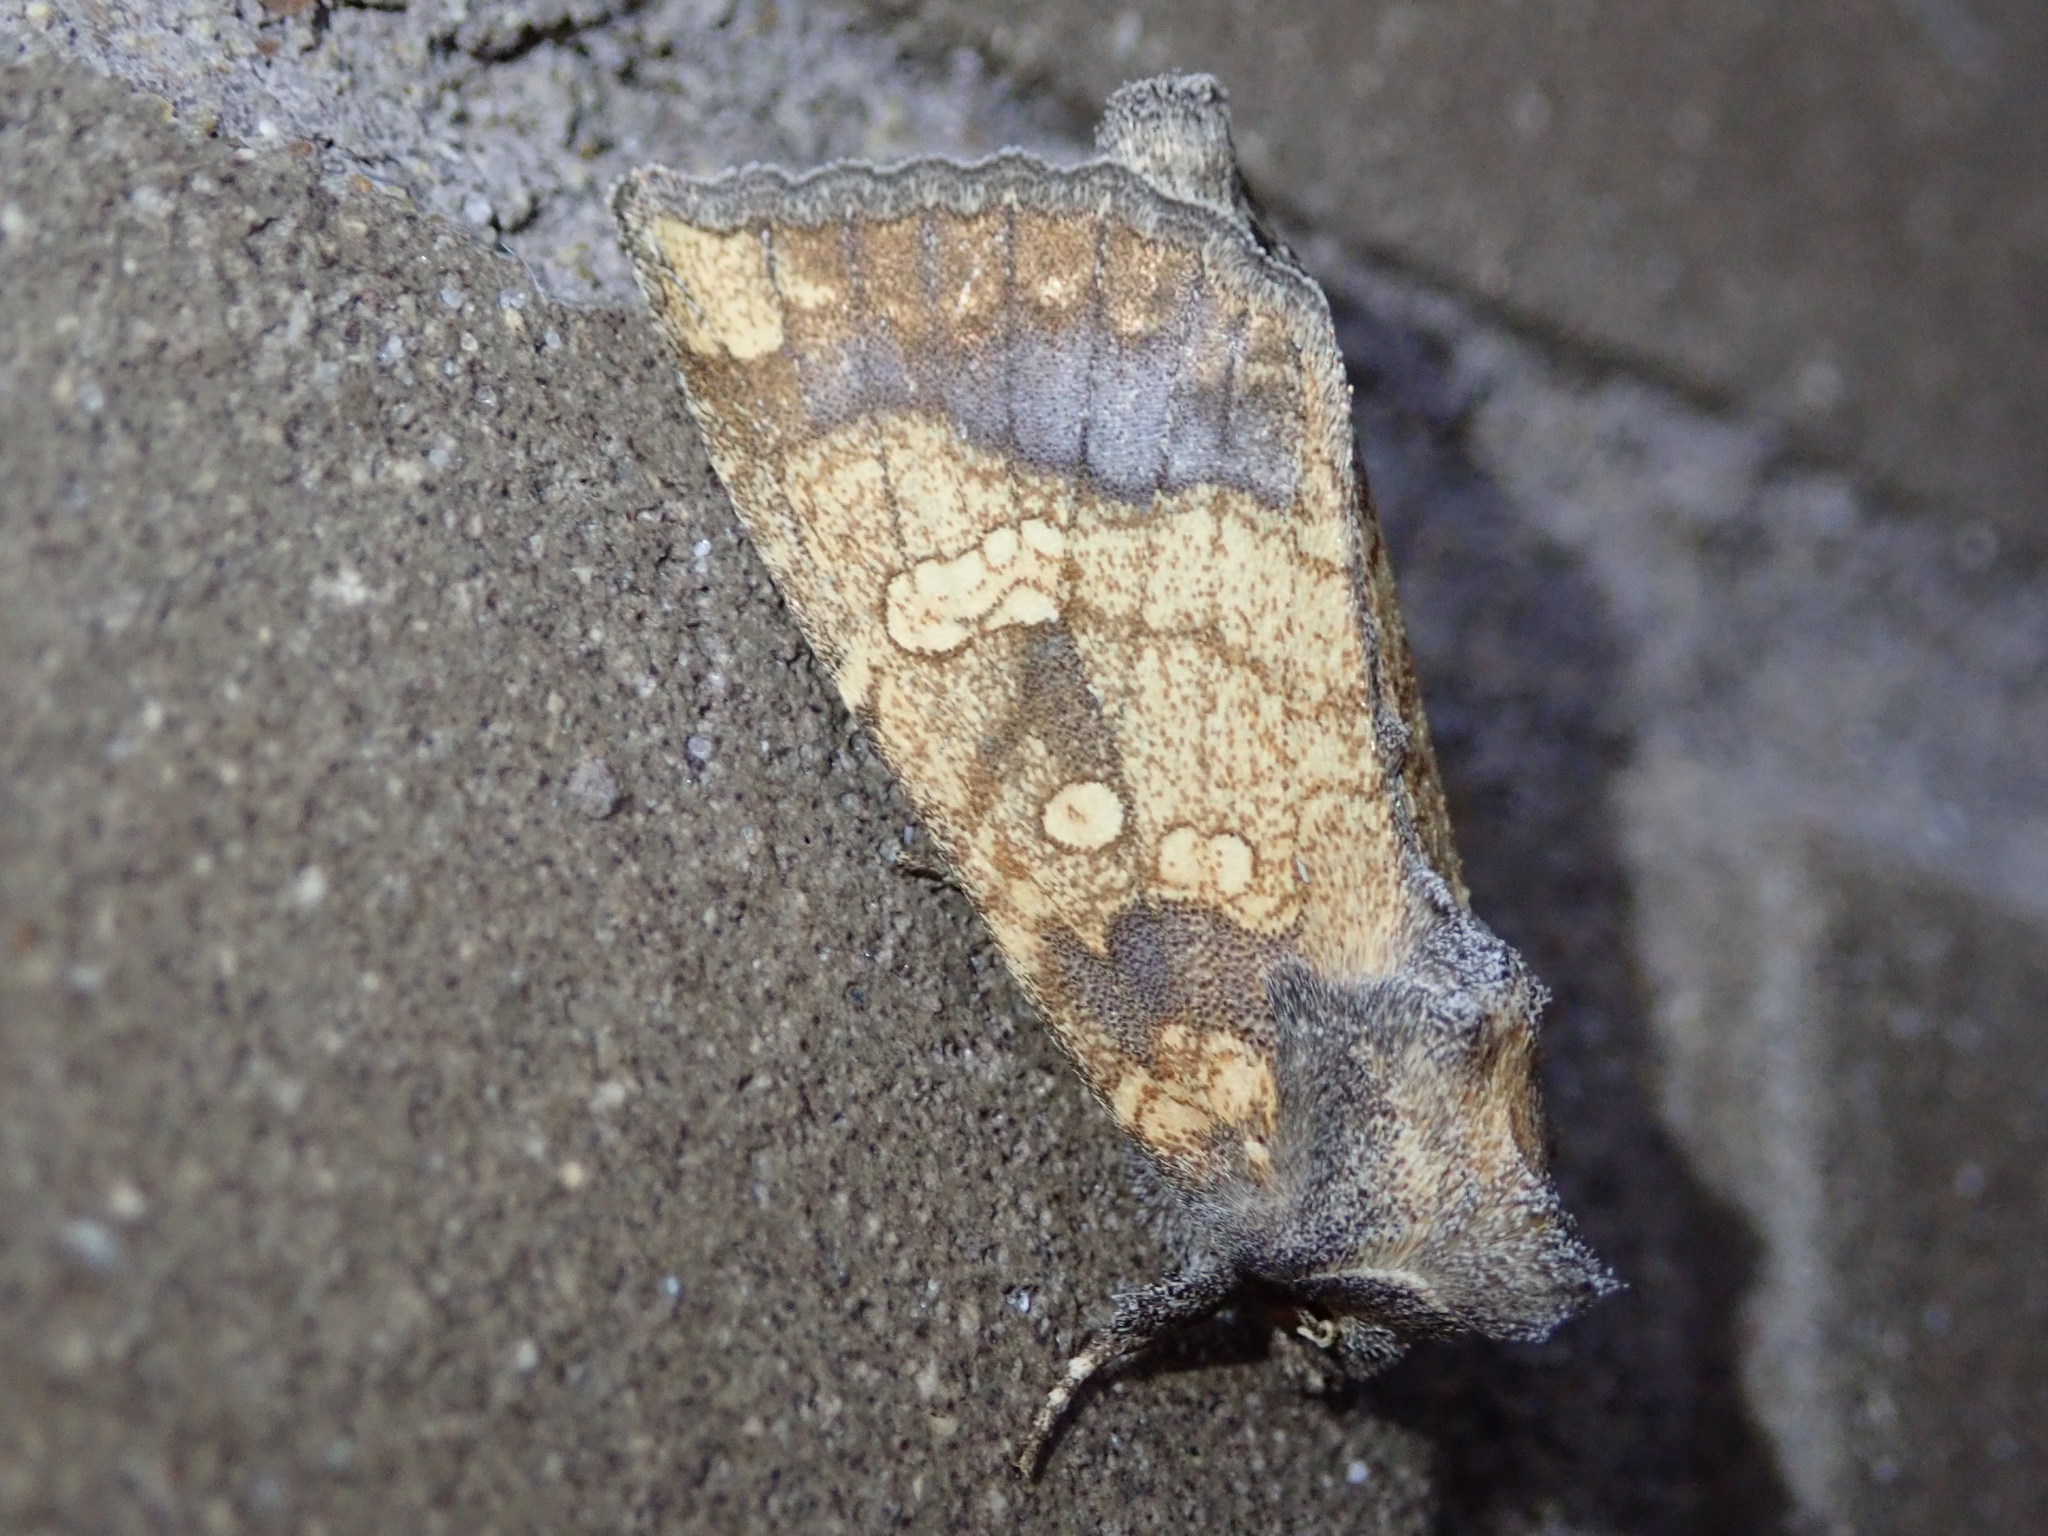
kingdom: Animalia
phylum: Arthropoda
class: Insecta
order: Lepidoptera
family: Noctuidae
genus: Papaipema
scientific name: Papaipema cataphracta
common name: Burdock borer
